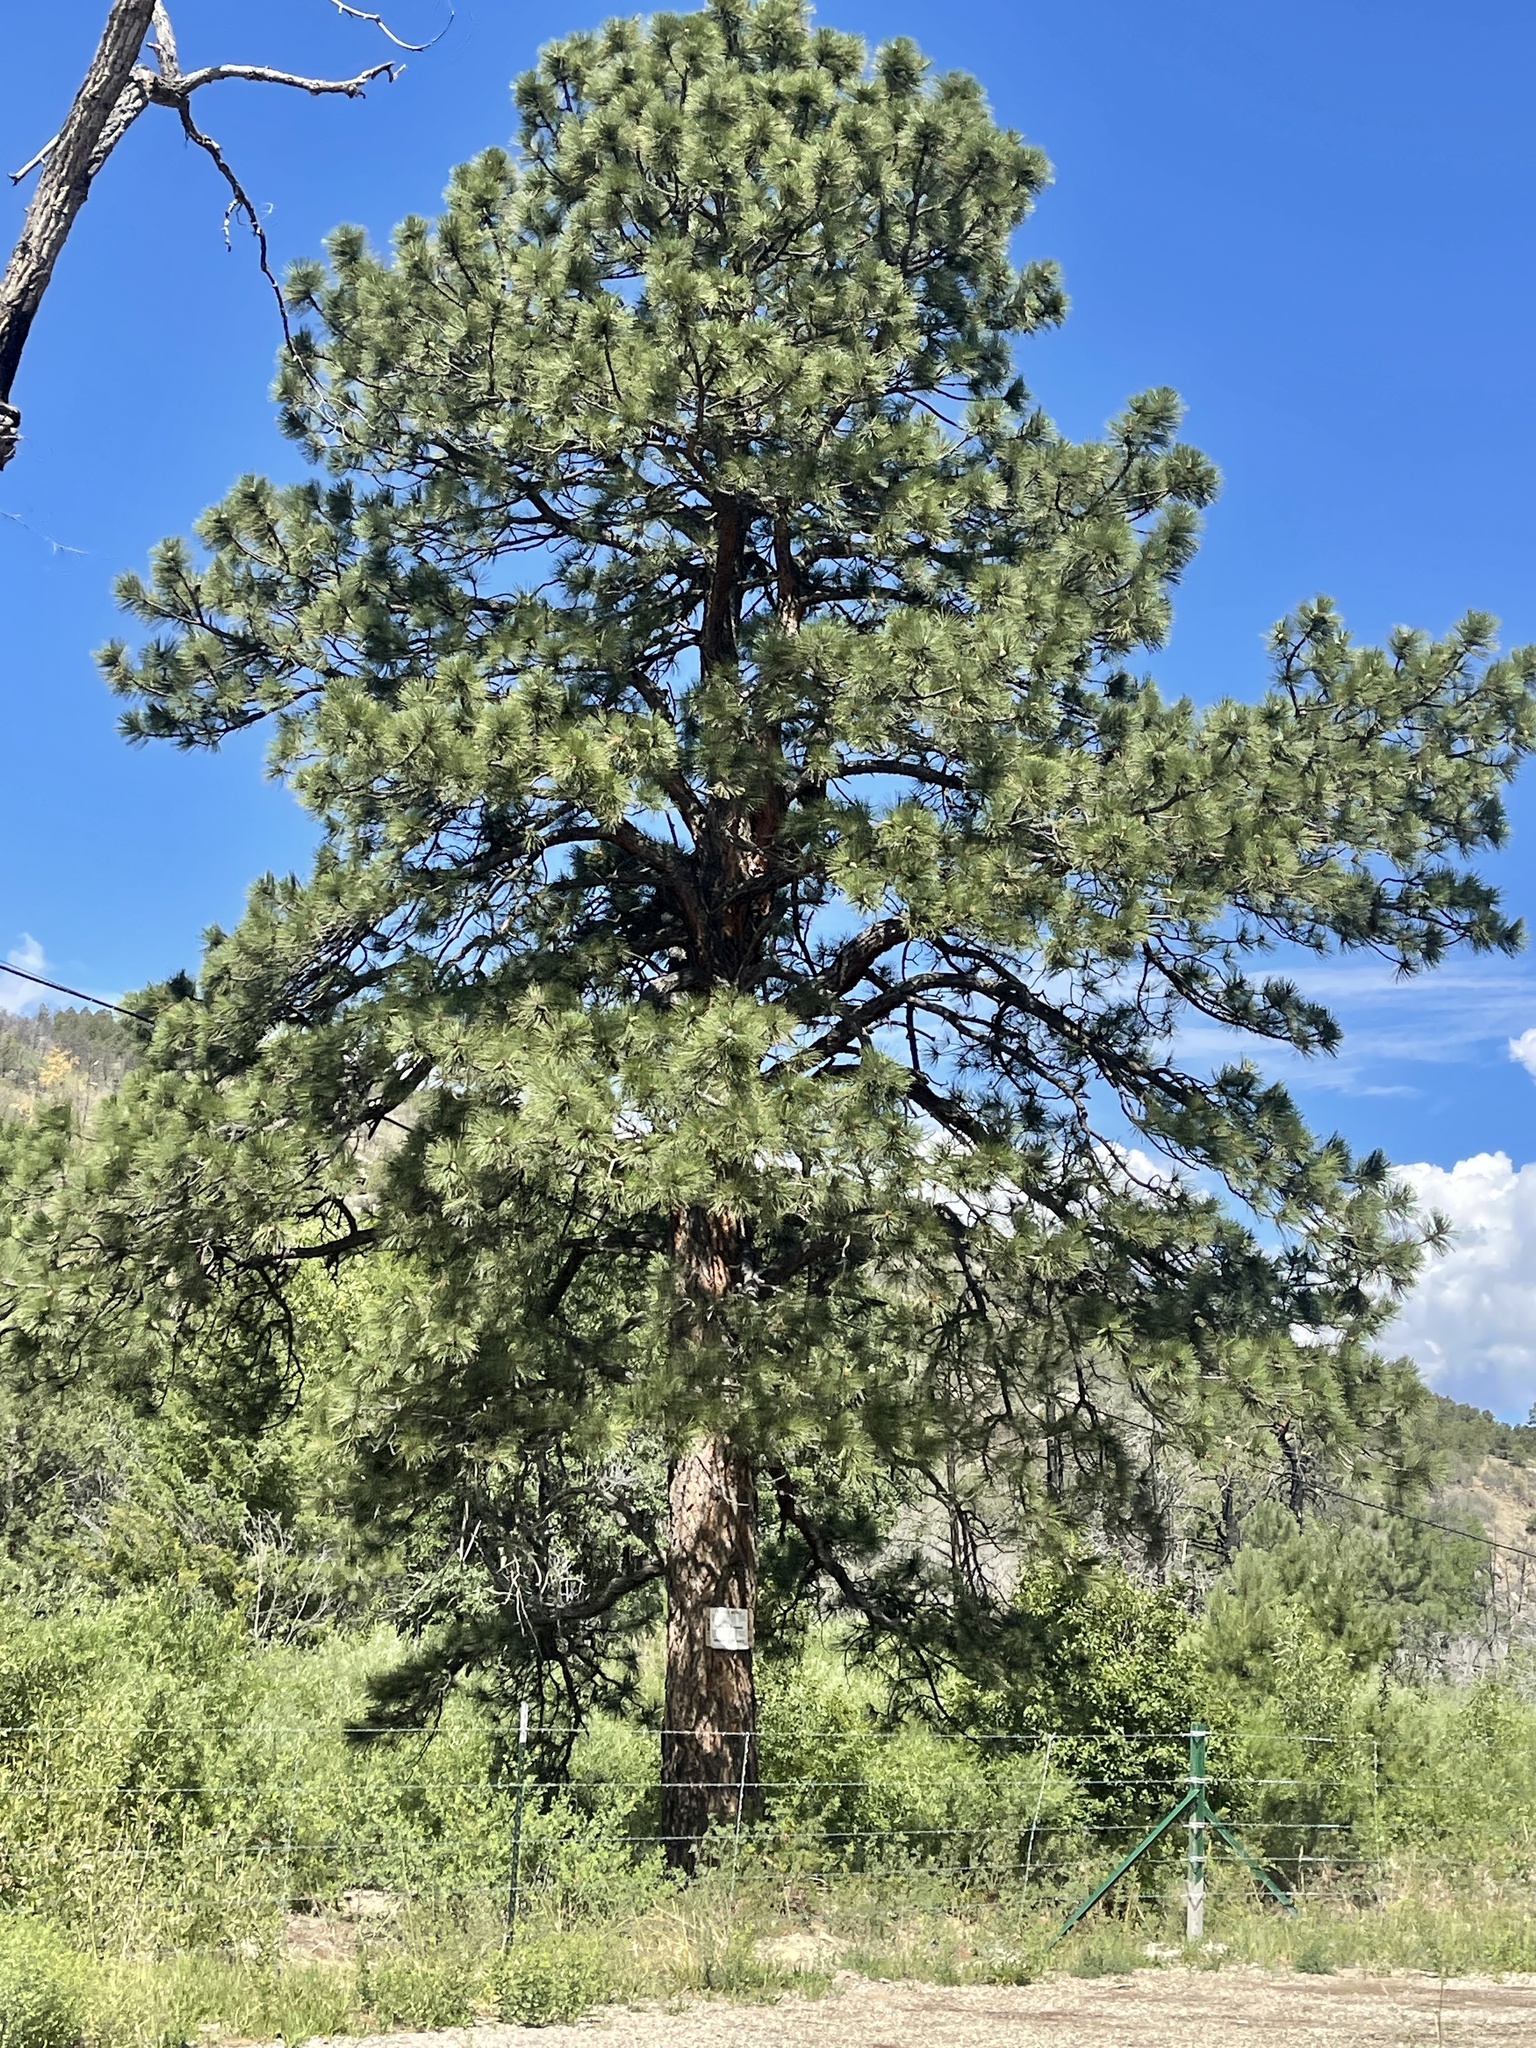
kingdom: Plantae
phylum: Tracheophyta
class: Pinopsida
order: Pinales
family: Pinaceae
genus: Pinus
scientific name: Pinus ponderosa
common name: Western yellow-pine
